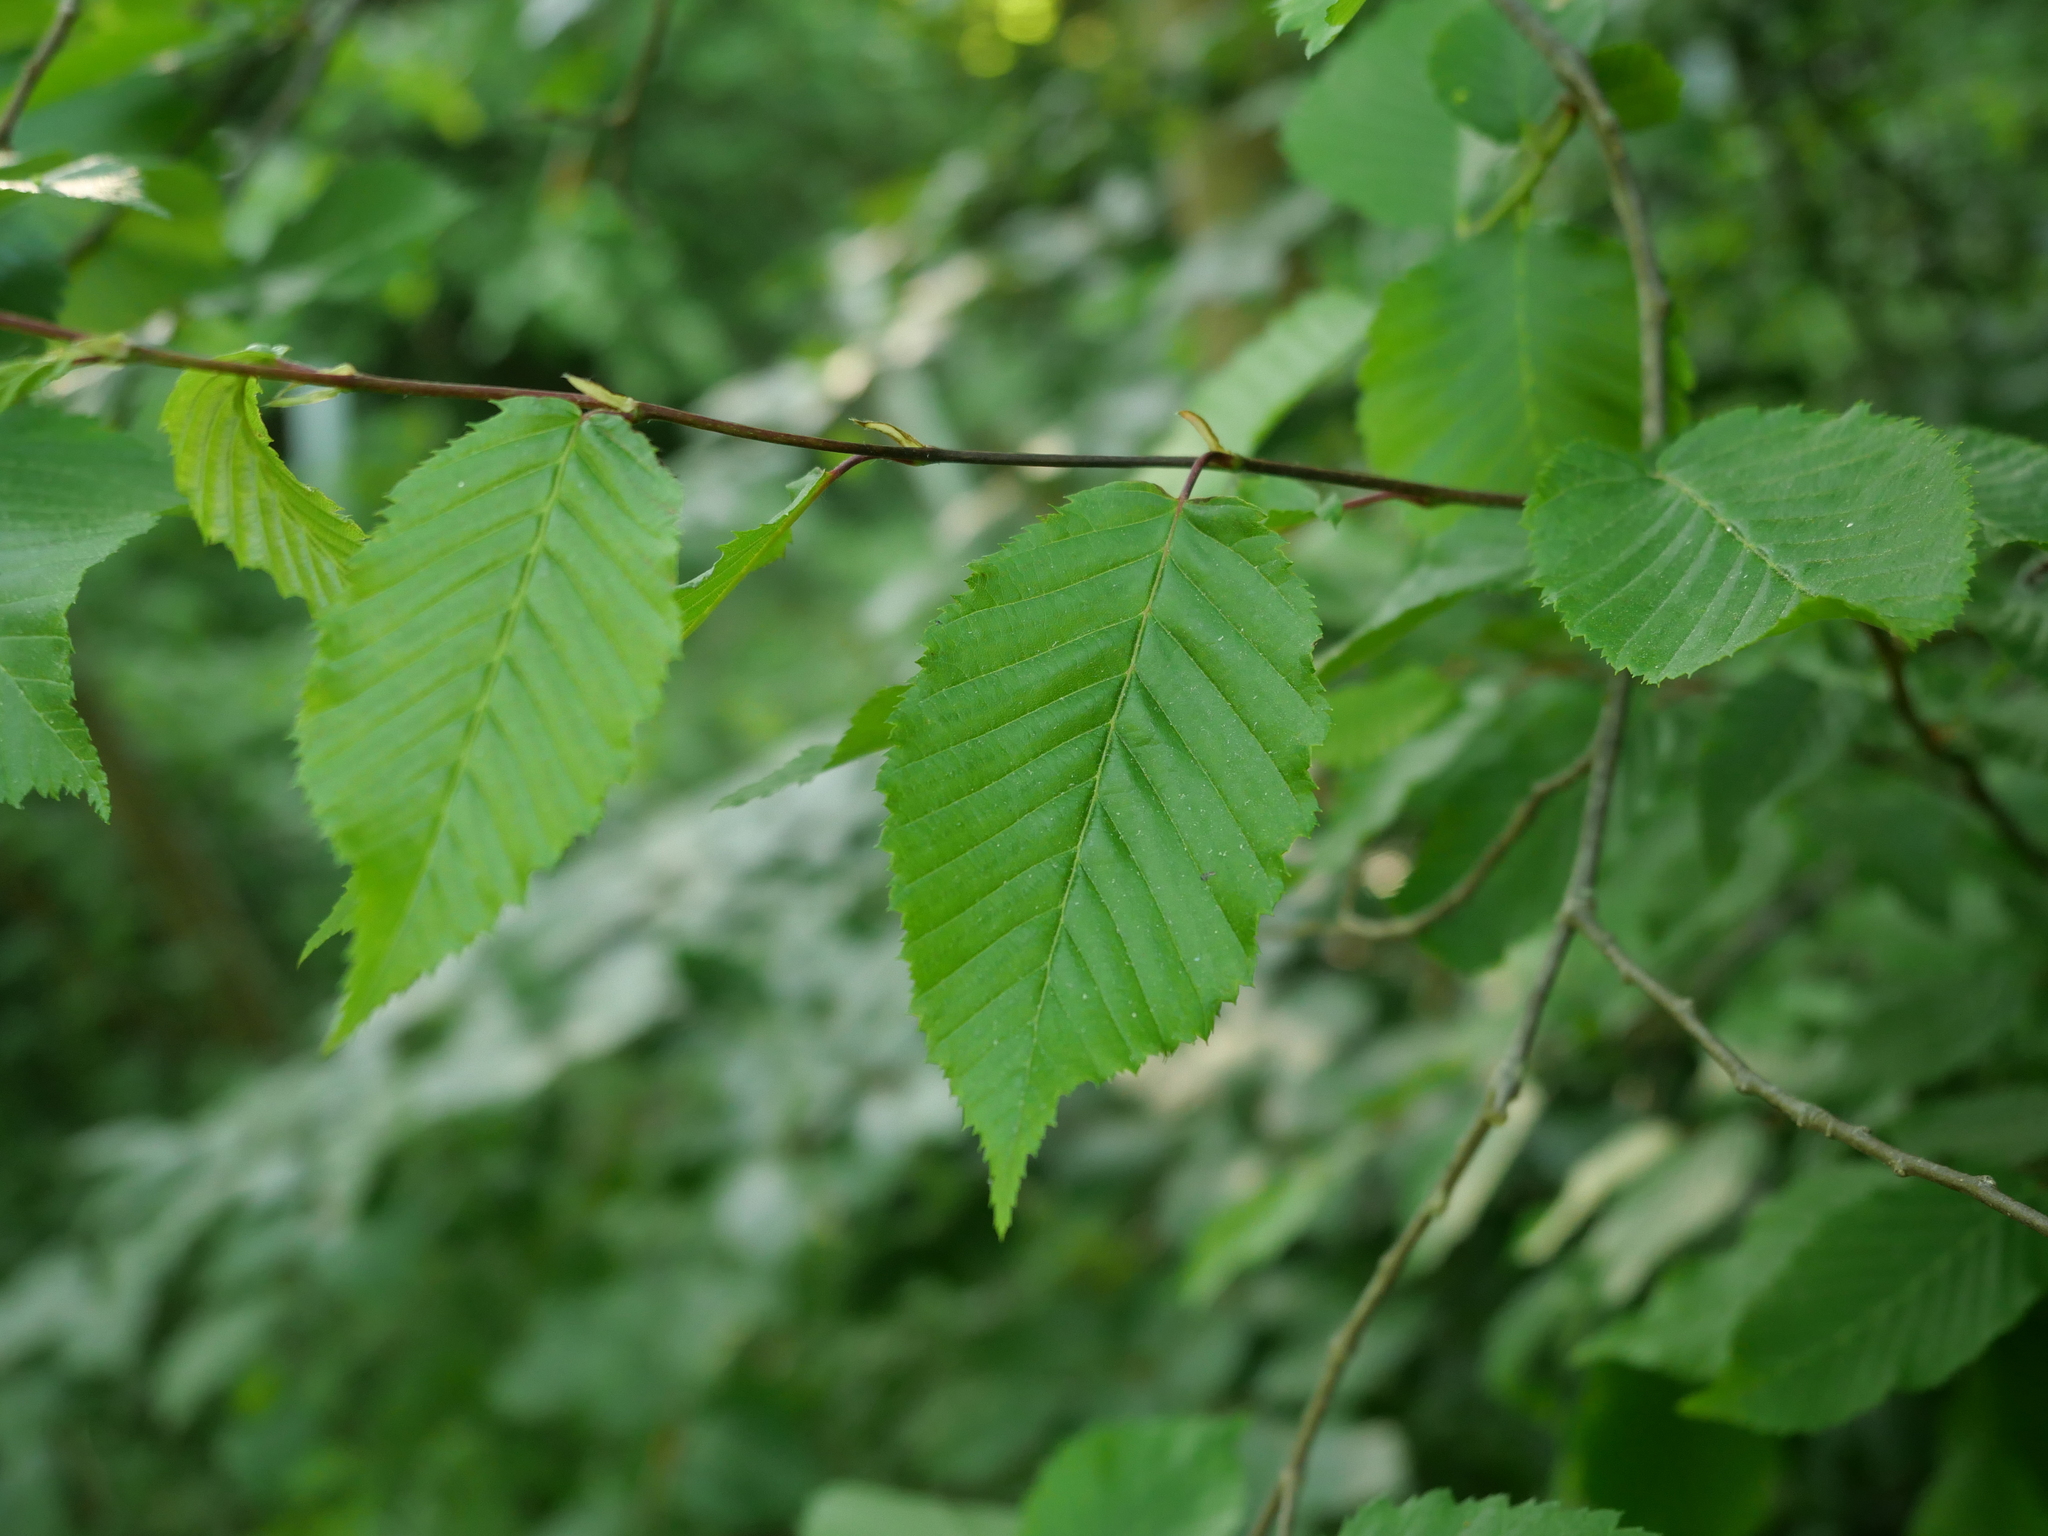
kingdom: Plantae
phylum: Tracheophyta
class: Magnoliopsida
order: Fagales
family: Betulaceae
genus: Carpinus
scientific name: Carpinus betulus
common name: Hornbeam
